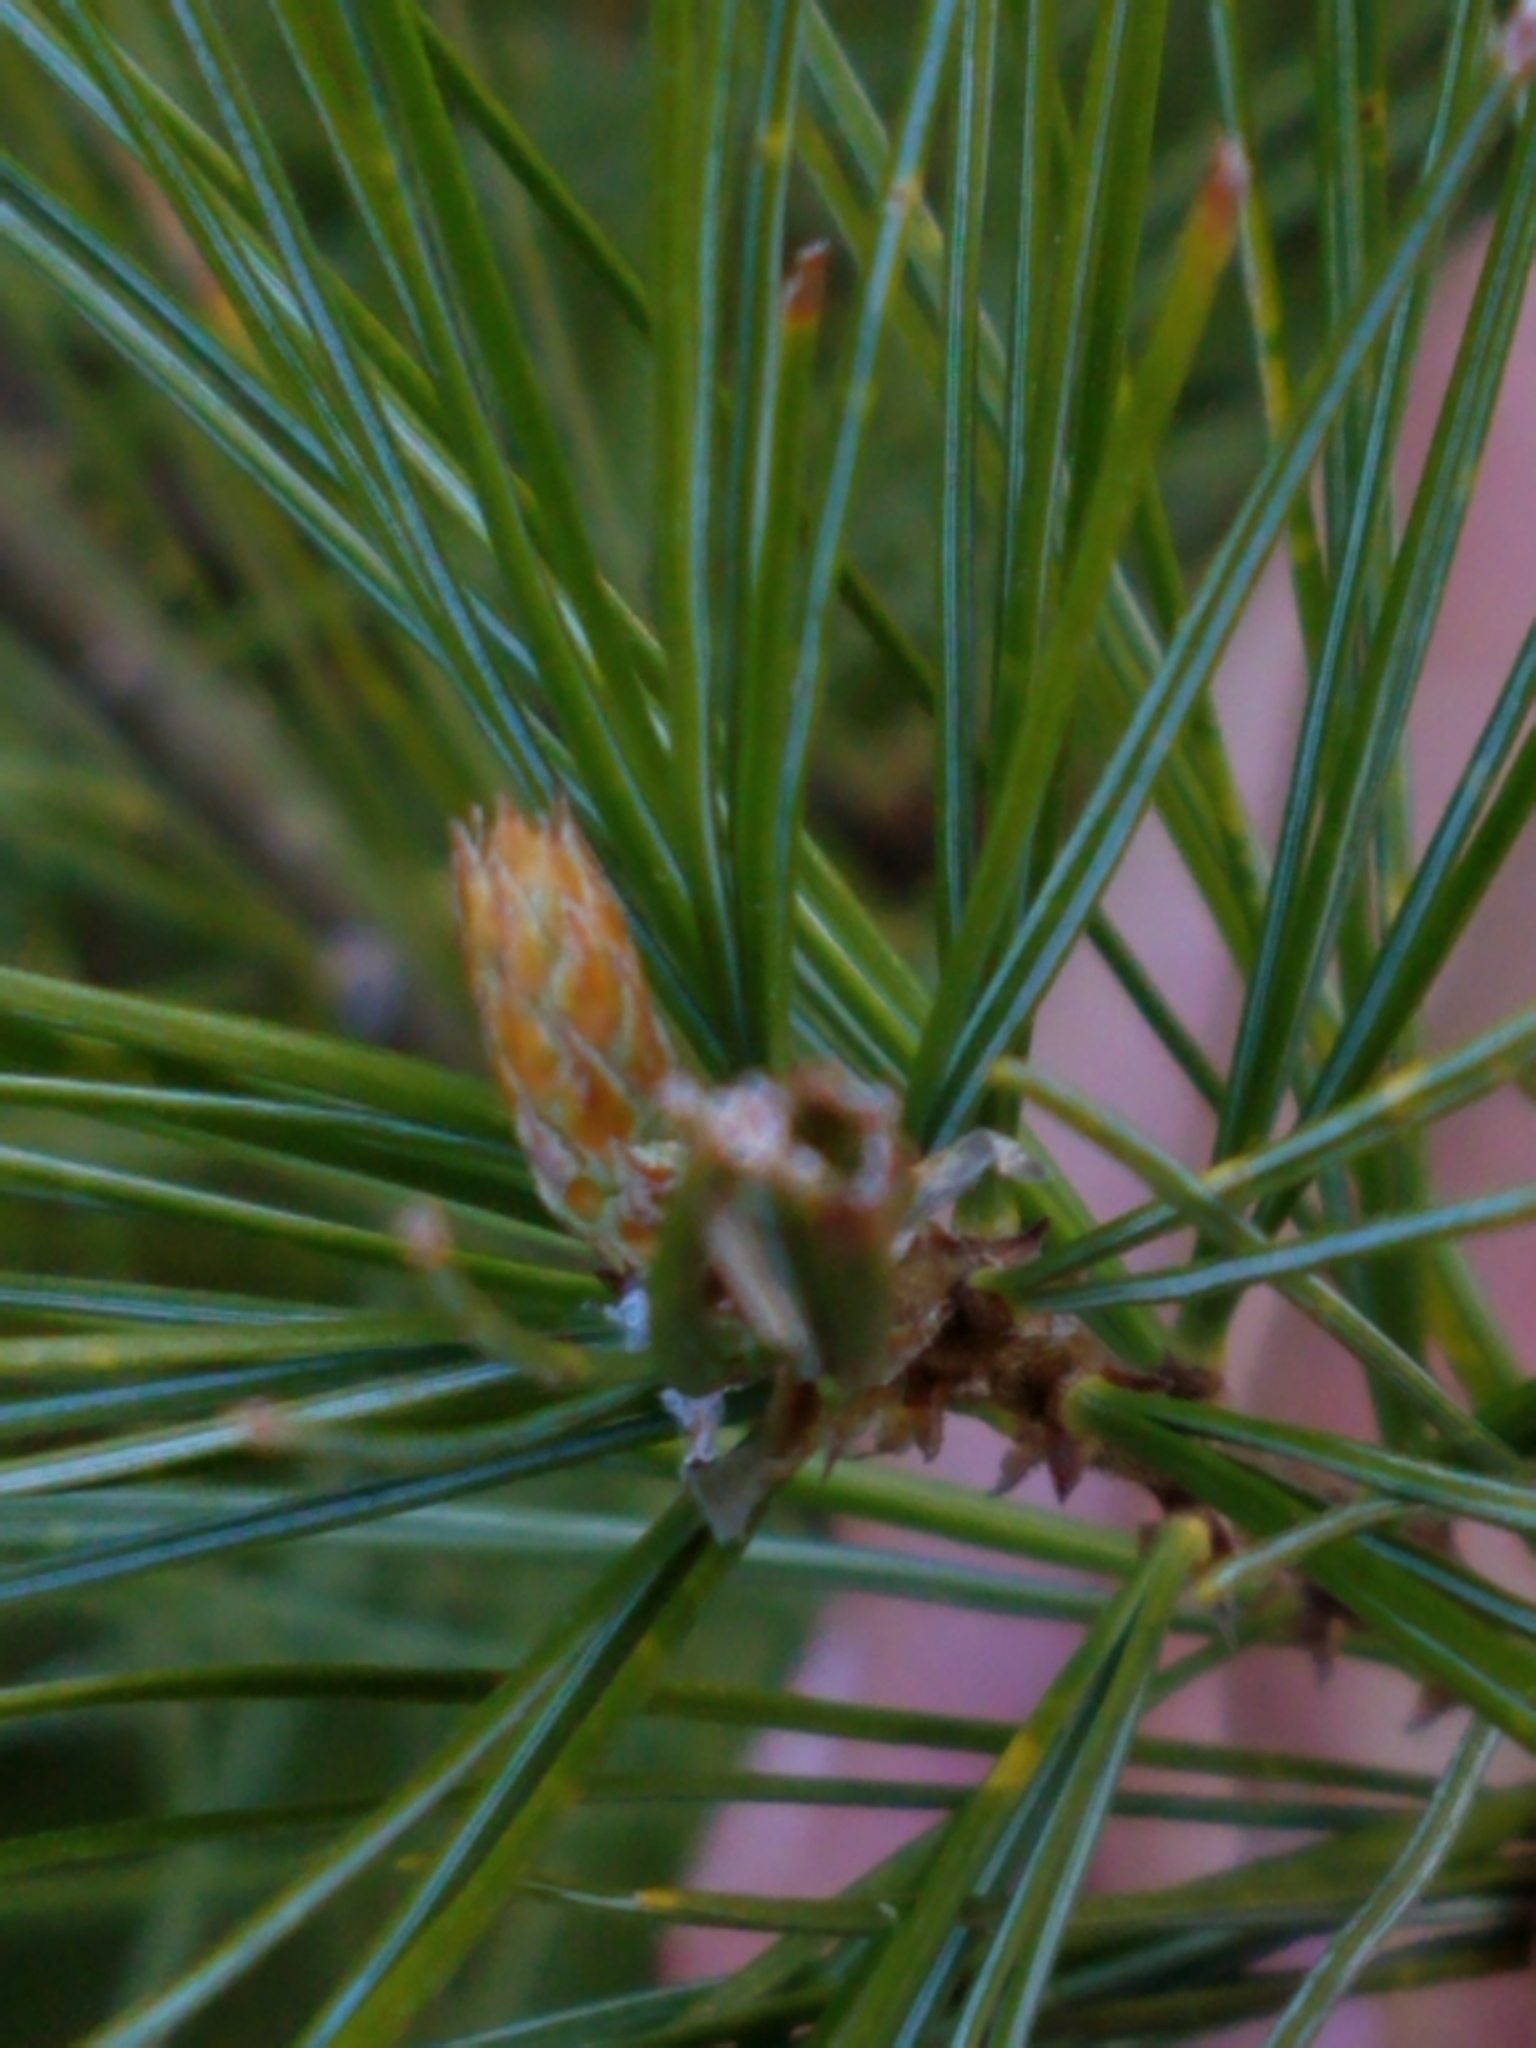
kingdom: Animalia
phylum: Arthropoda
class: Insecta
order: Lepidoptera
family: Tortricidae
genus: Argyrotaenia
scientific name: Argyrotaenia pinatubana
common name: Pine tube moth
